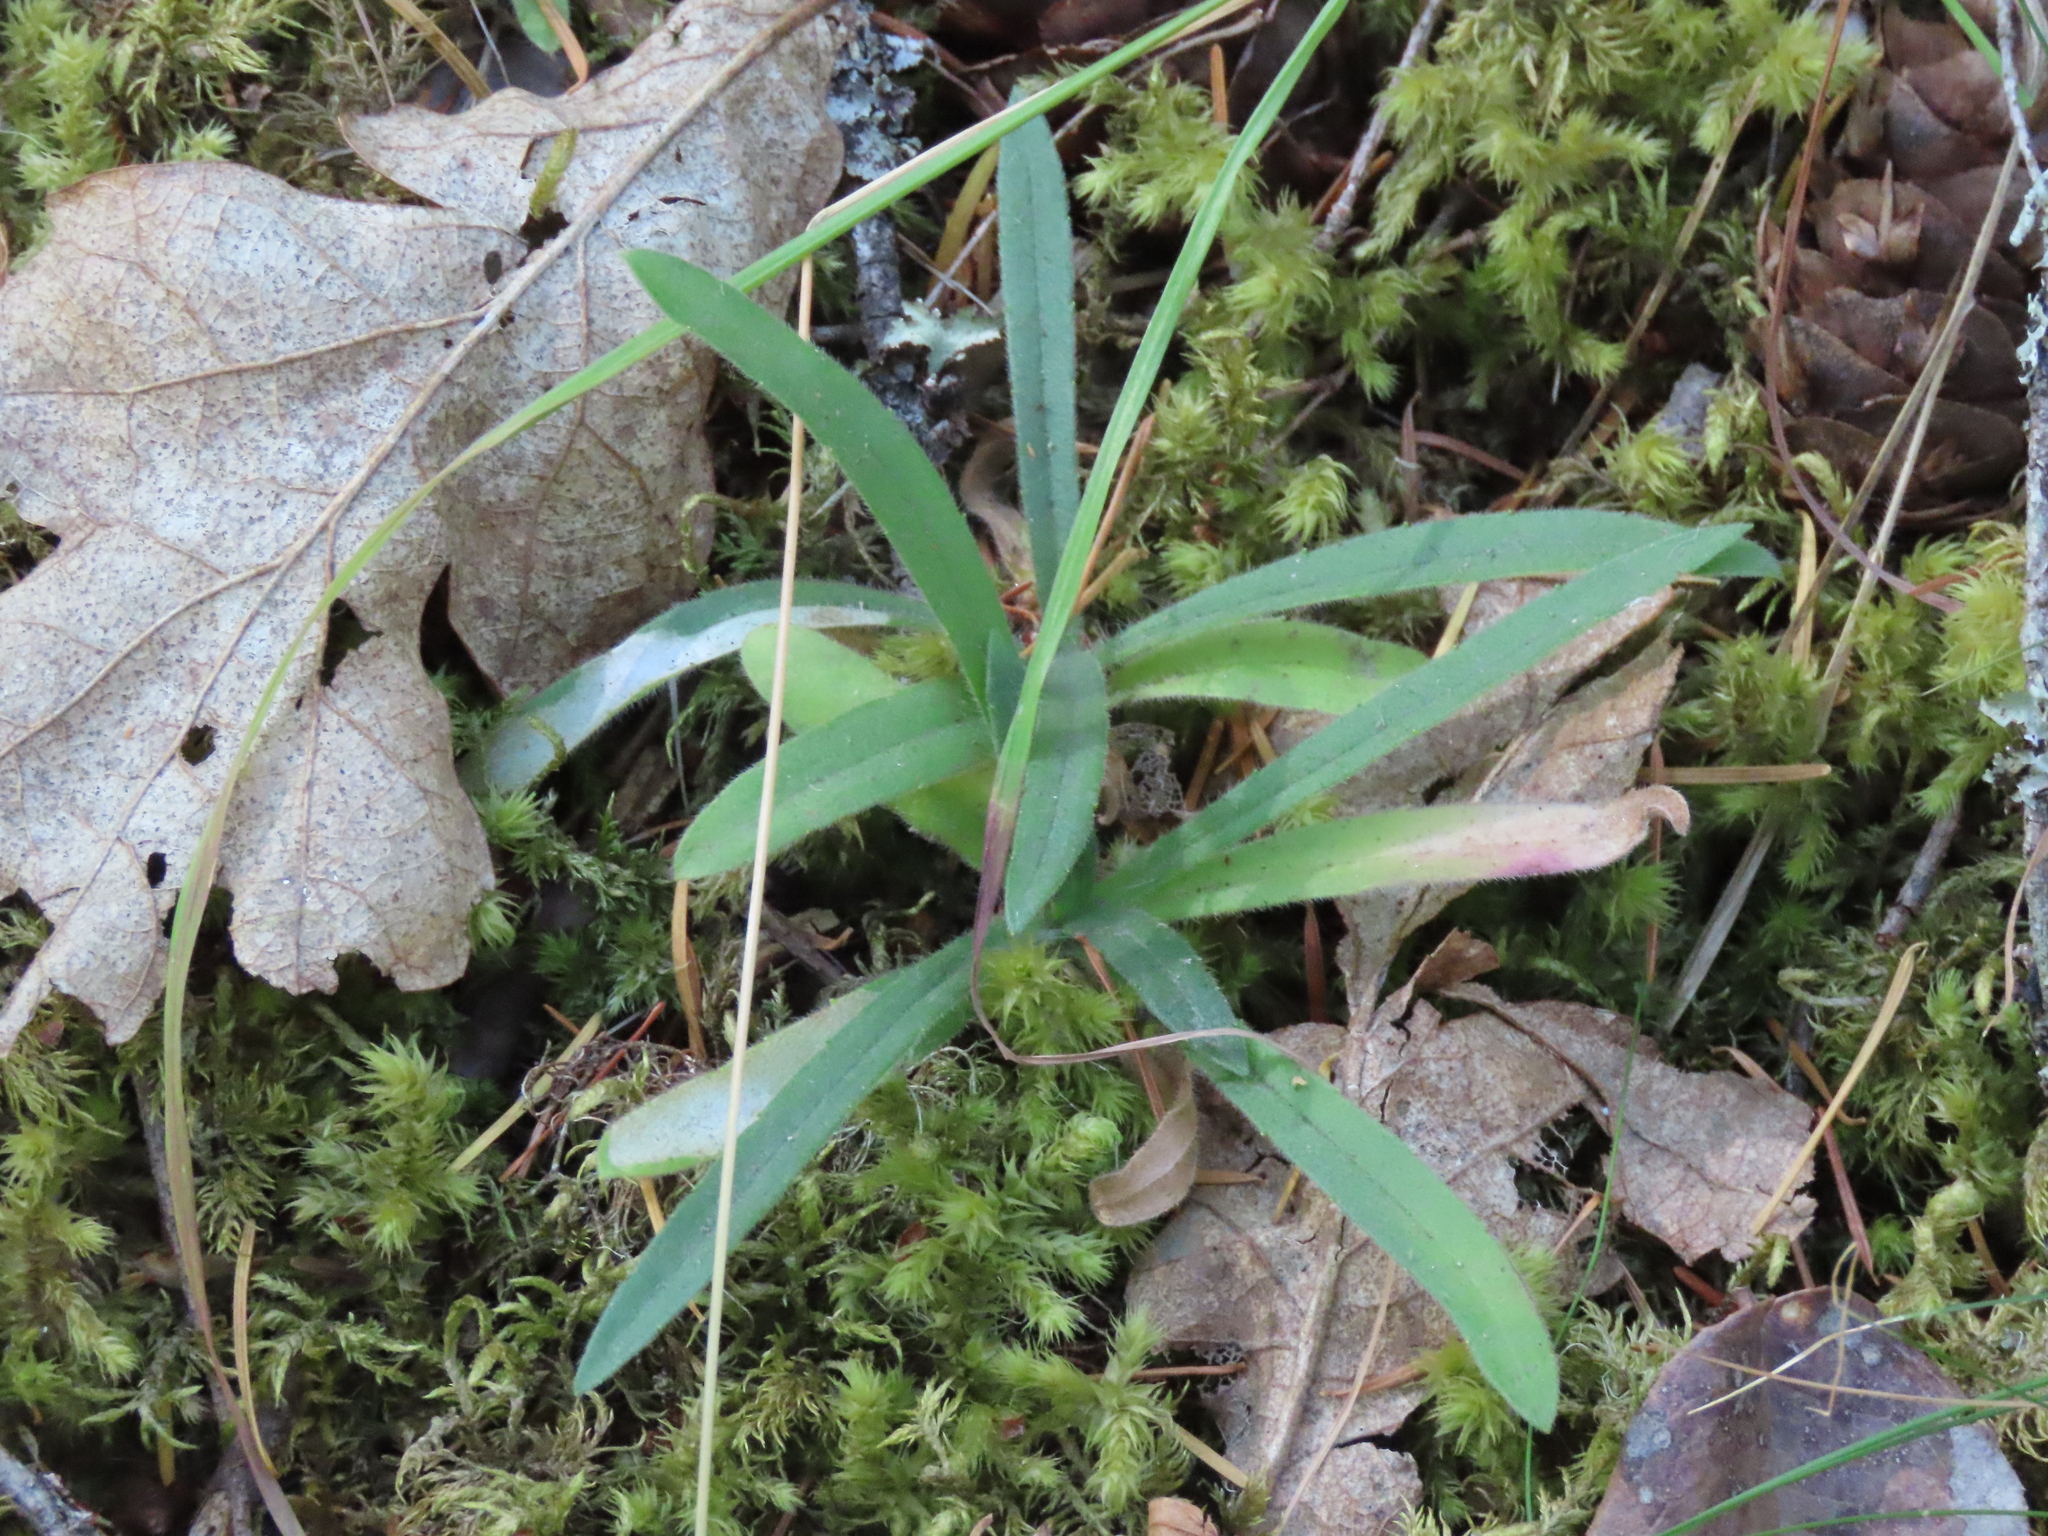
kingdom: Plantae
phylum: Tracheophyta
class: Magnoliopsida
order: Asterales
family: Asteraceae
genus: Anisocarpus
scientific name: Anisocarpus madioides
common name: Woodland madia
